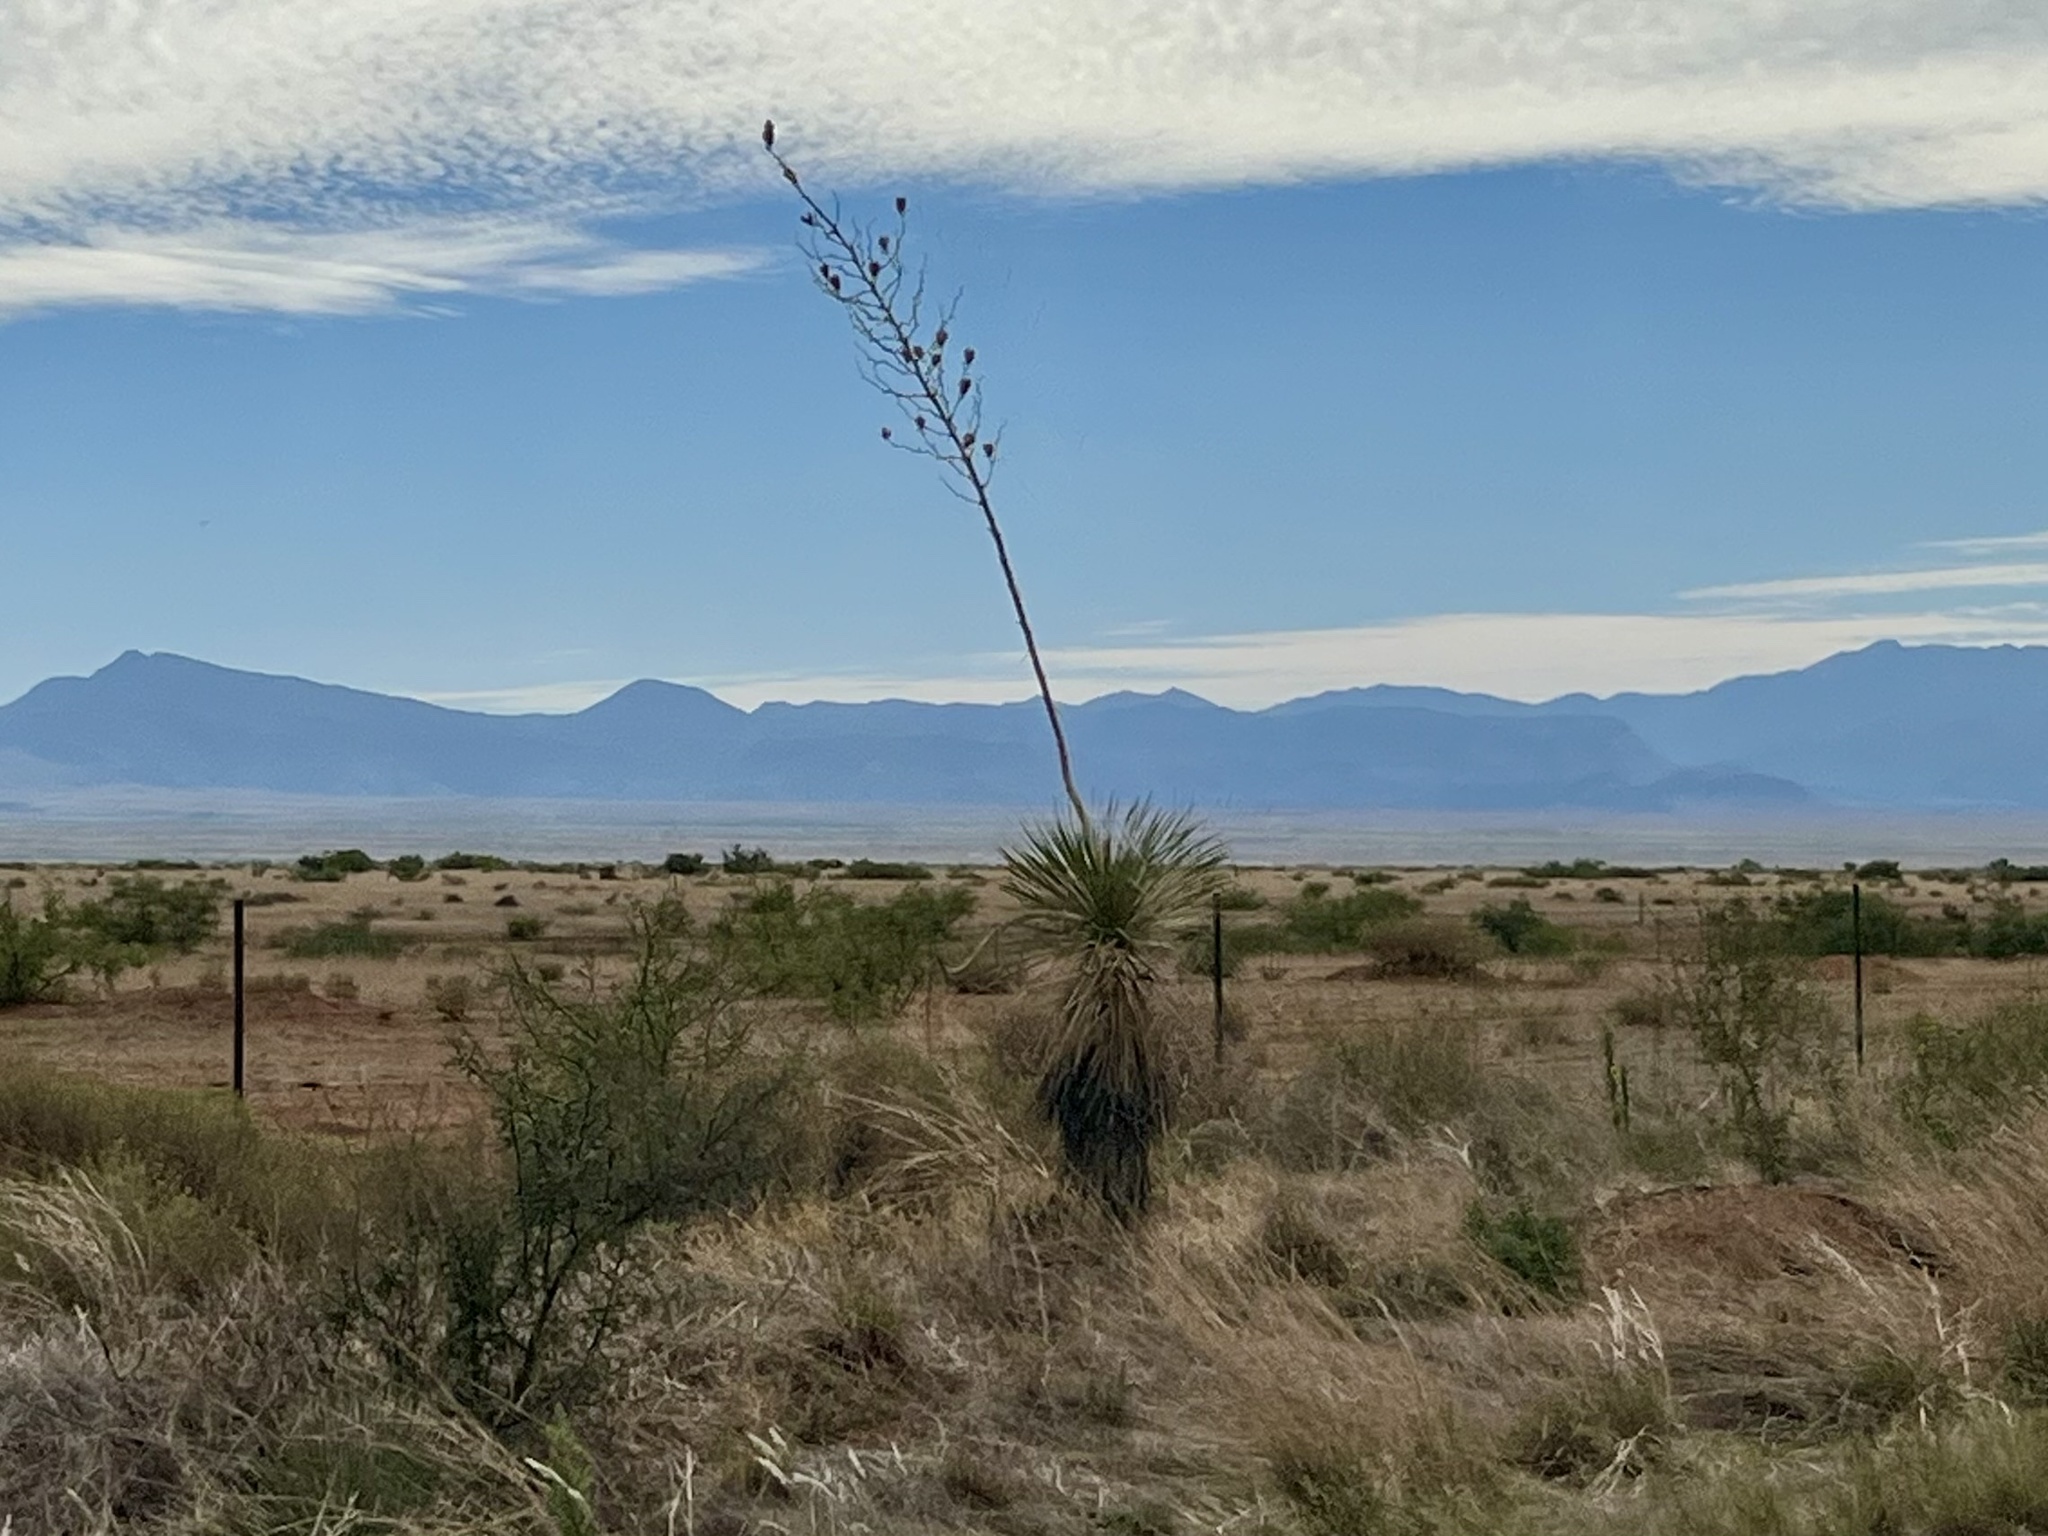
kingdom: Plantae
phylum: Tracheophyta
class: Liliopsida
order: Asparagales
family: Asparagaceae
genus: Yucca
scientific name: Yucca elata
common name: Palmella
